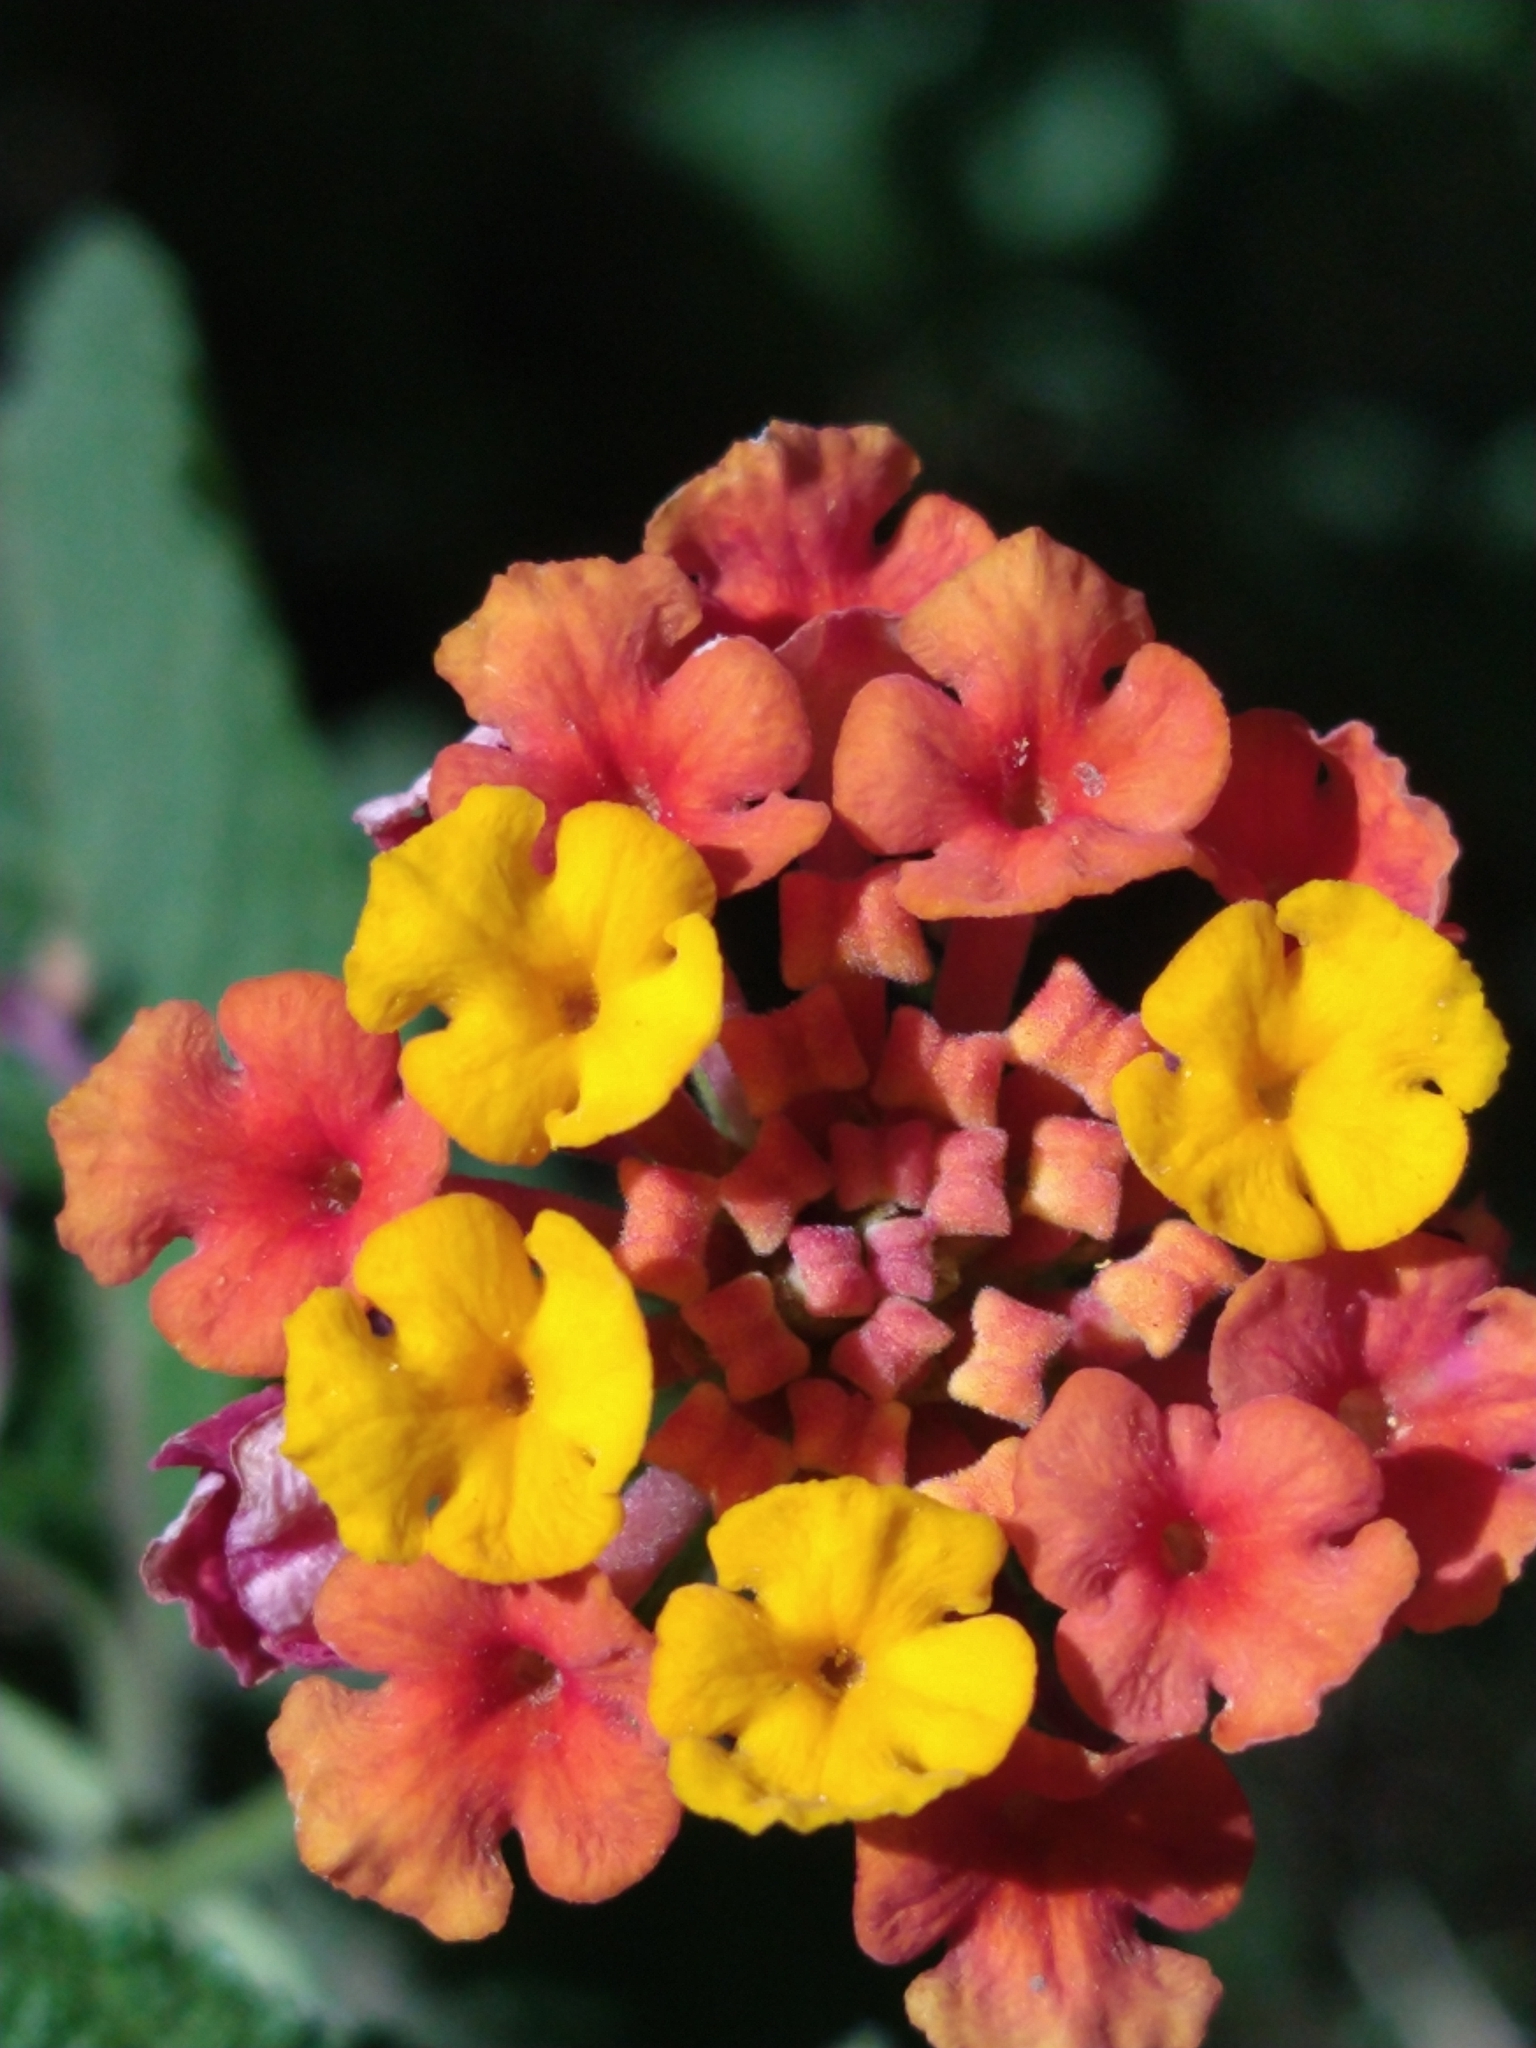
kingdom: Plantae
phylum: Tracheophyta
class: Magnoliopsida
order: Lamiales
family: Verbenaceae
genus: Lantana
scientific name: Lantana camara
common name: Lantana
